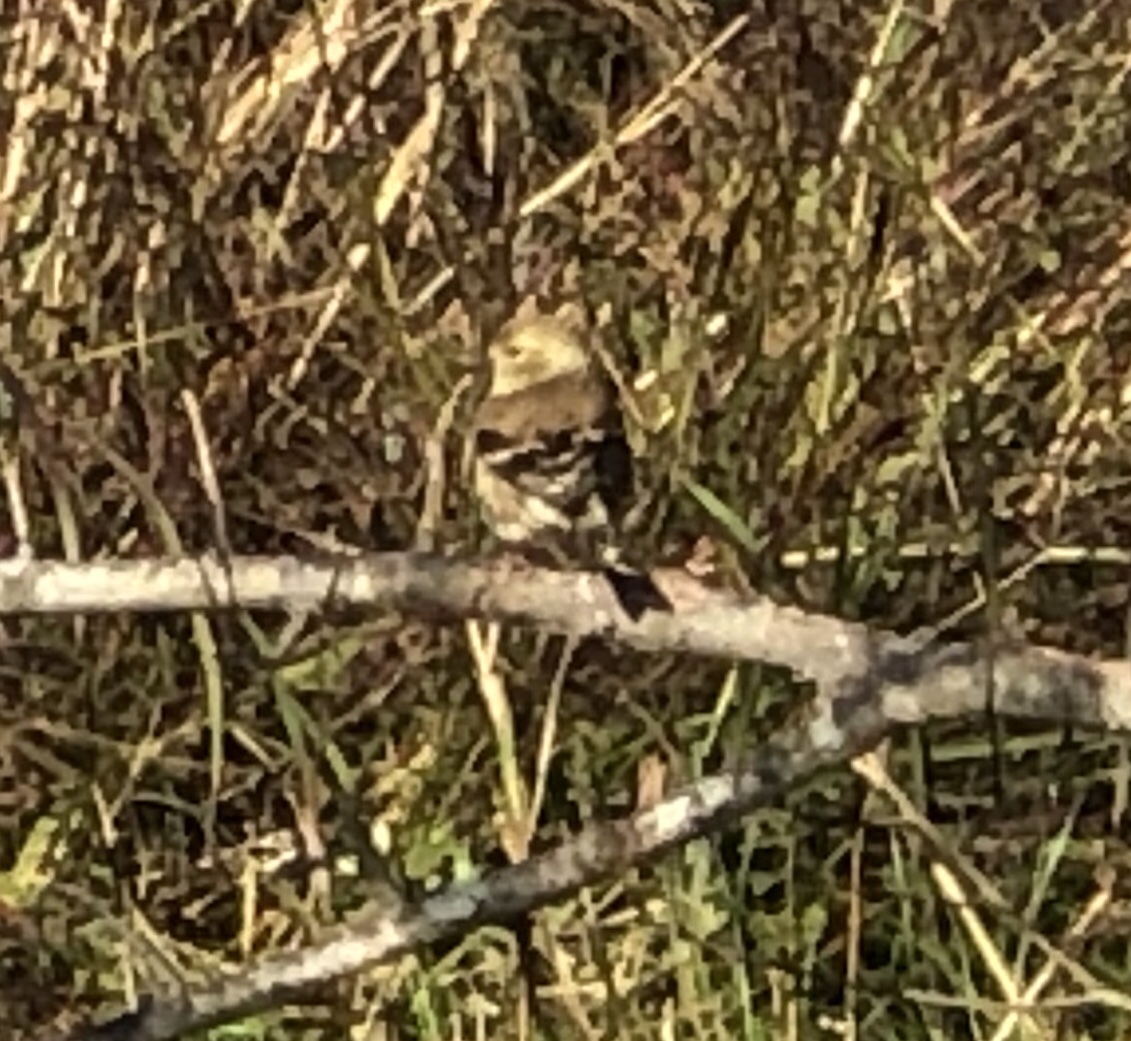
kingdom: Animalia
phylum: Chordata
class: Aves
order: Passeriformes
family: Fringillidae
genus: Spinus
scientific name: Spinus tristis
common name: American goldfinch
